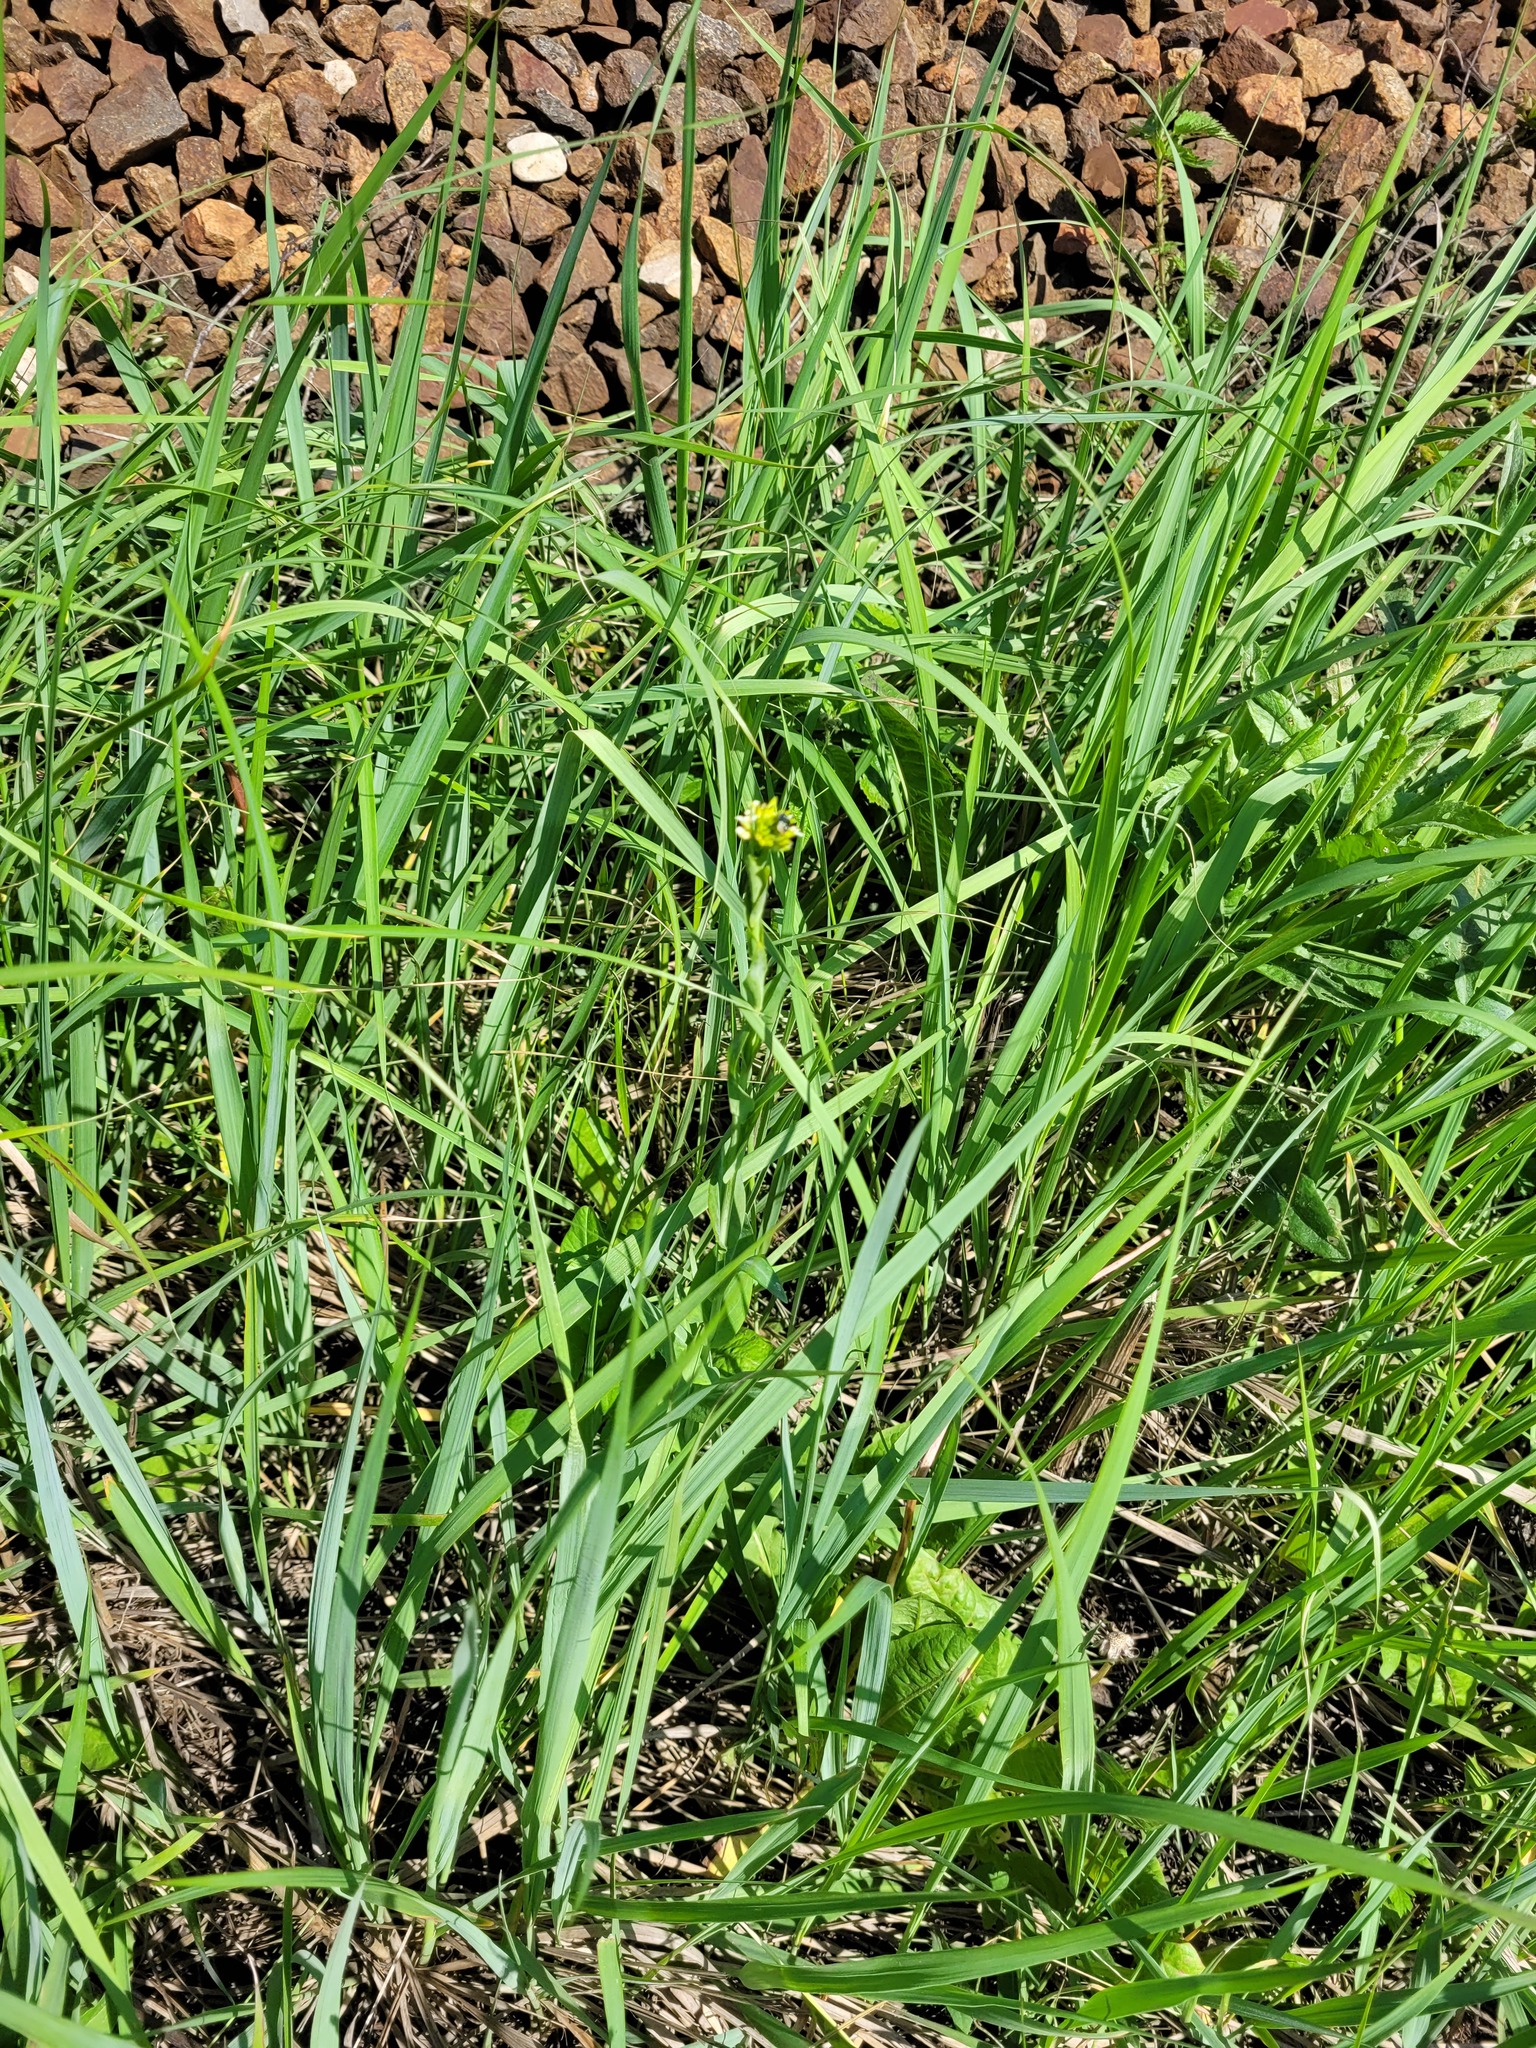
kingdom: Plantae
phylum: Tracheophyta
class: Magnoliopsida
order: Brassicales
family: Brassicaceae
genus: Turritis
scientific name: Turritis glabra
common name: Tower rockcress
